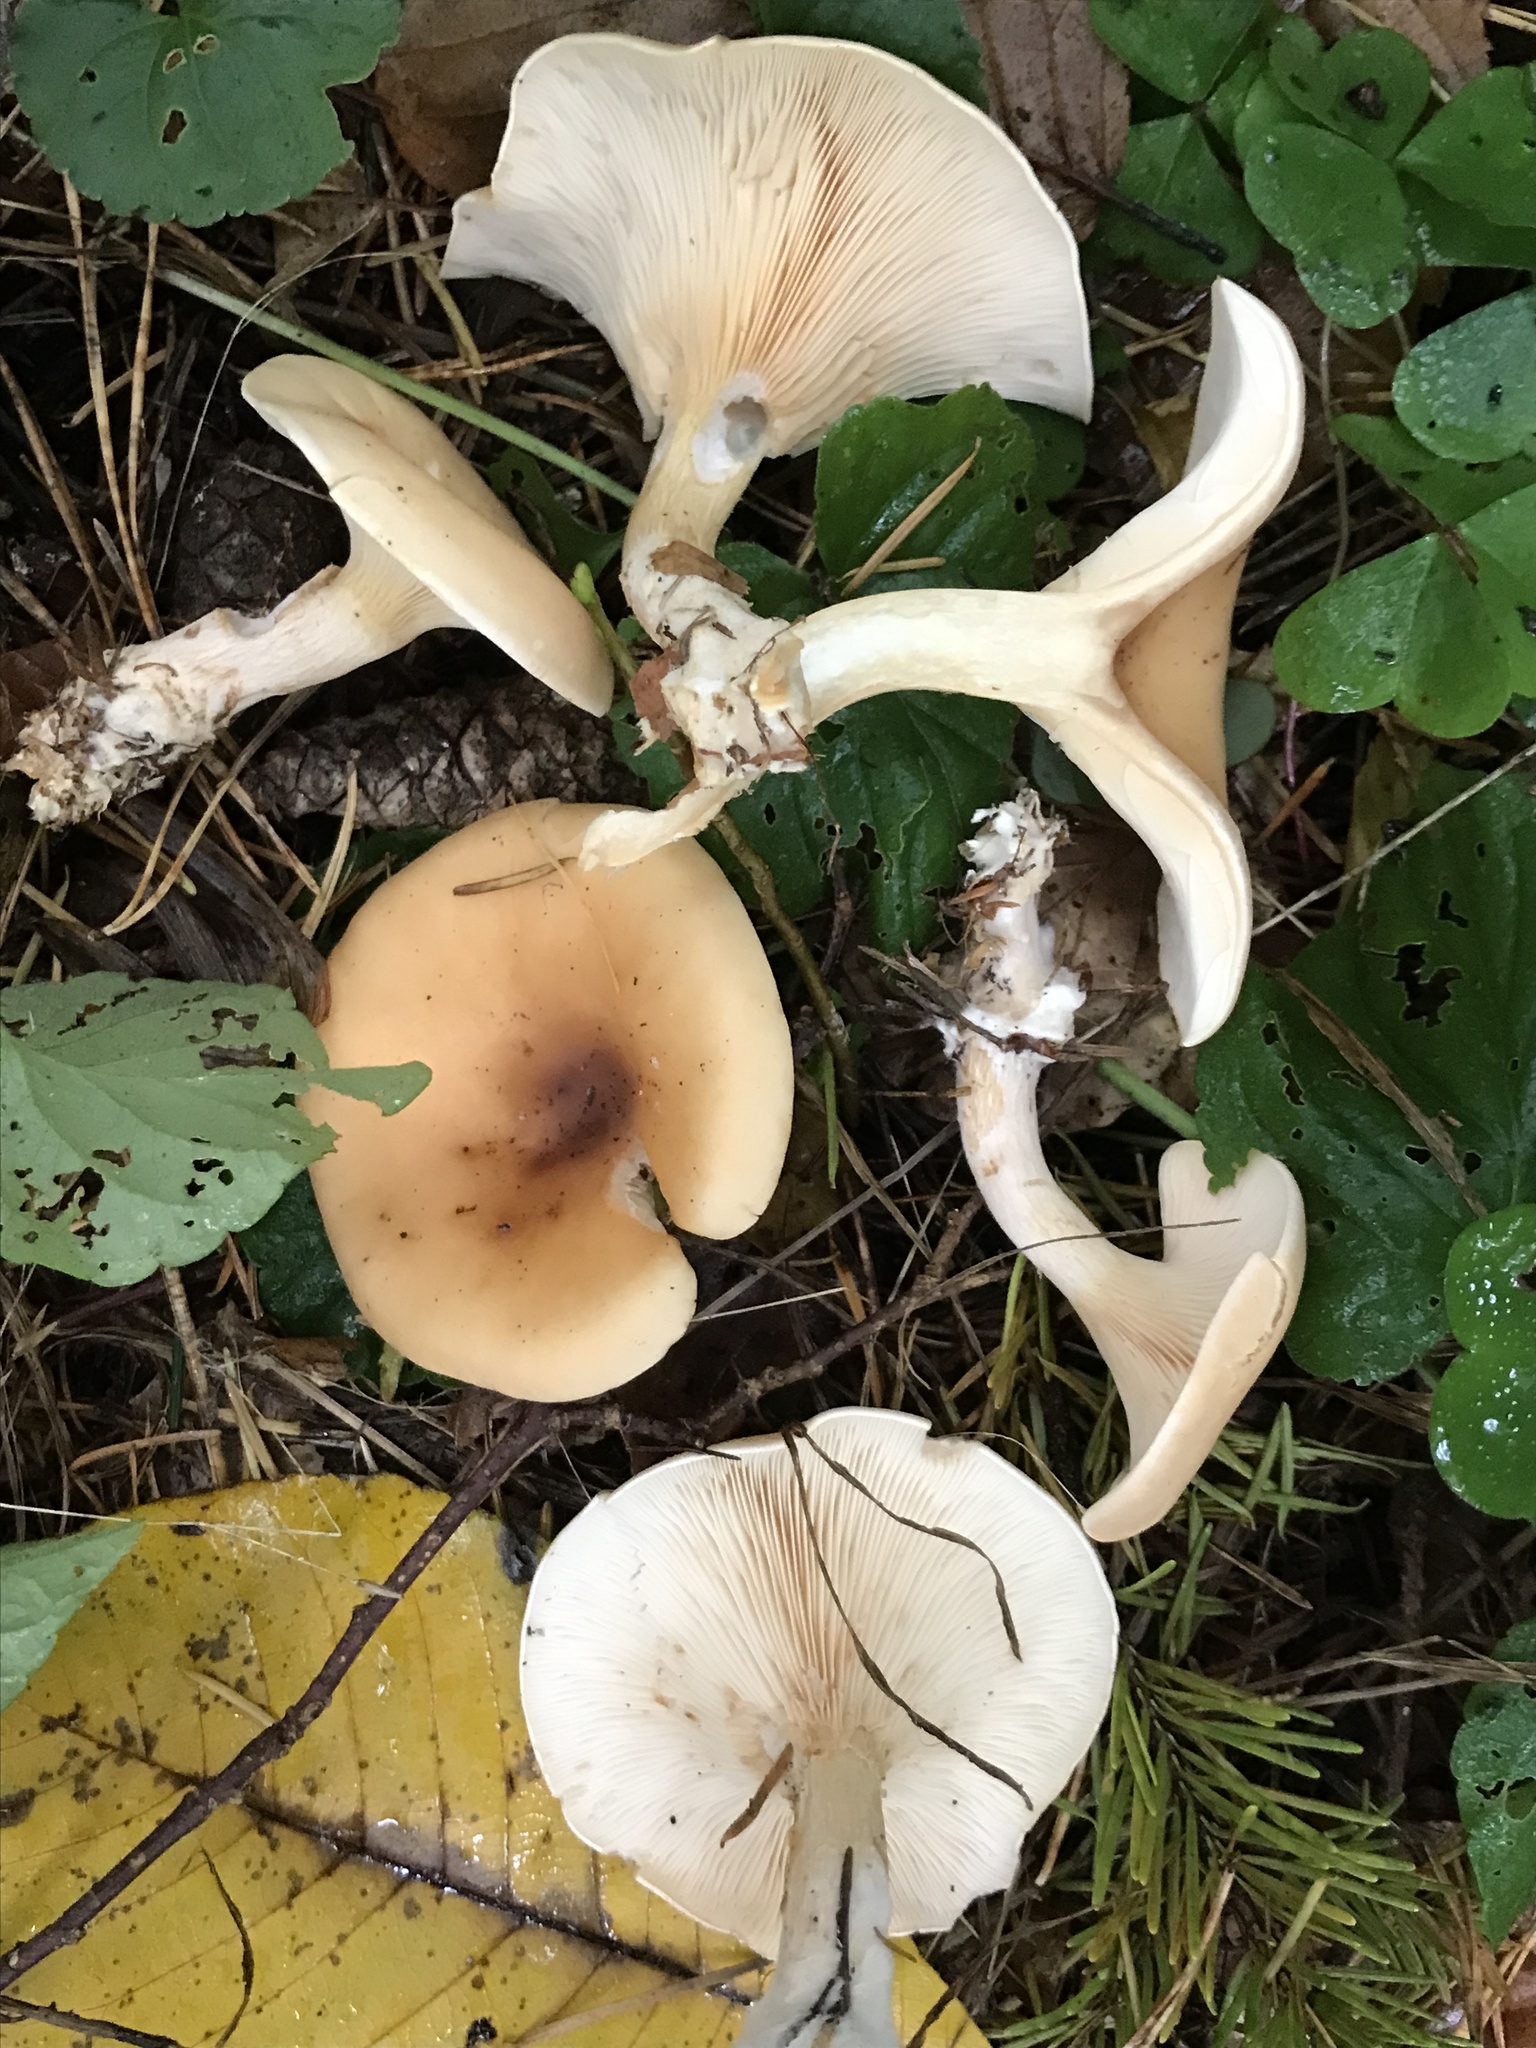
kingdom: Fungi
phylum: Basidiomycota
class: Agaricomycetes
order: Agaricales
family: Tricholomataceae
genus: Paralepista
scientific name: Paralepista flaccida
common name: Tawny funnel cap
